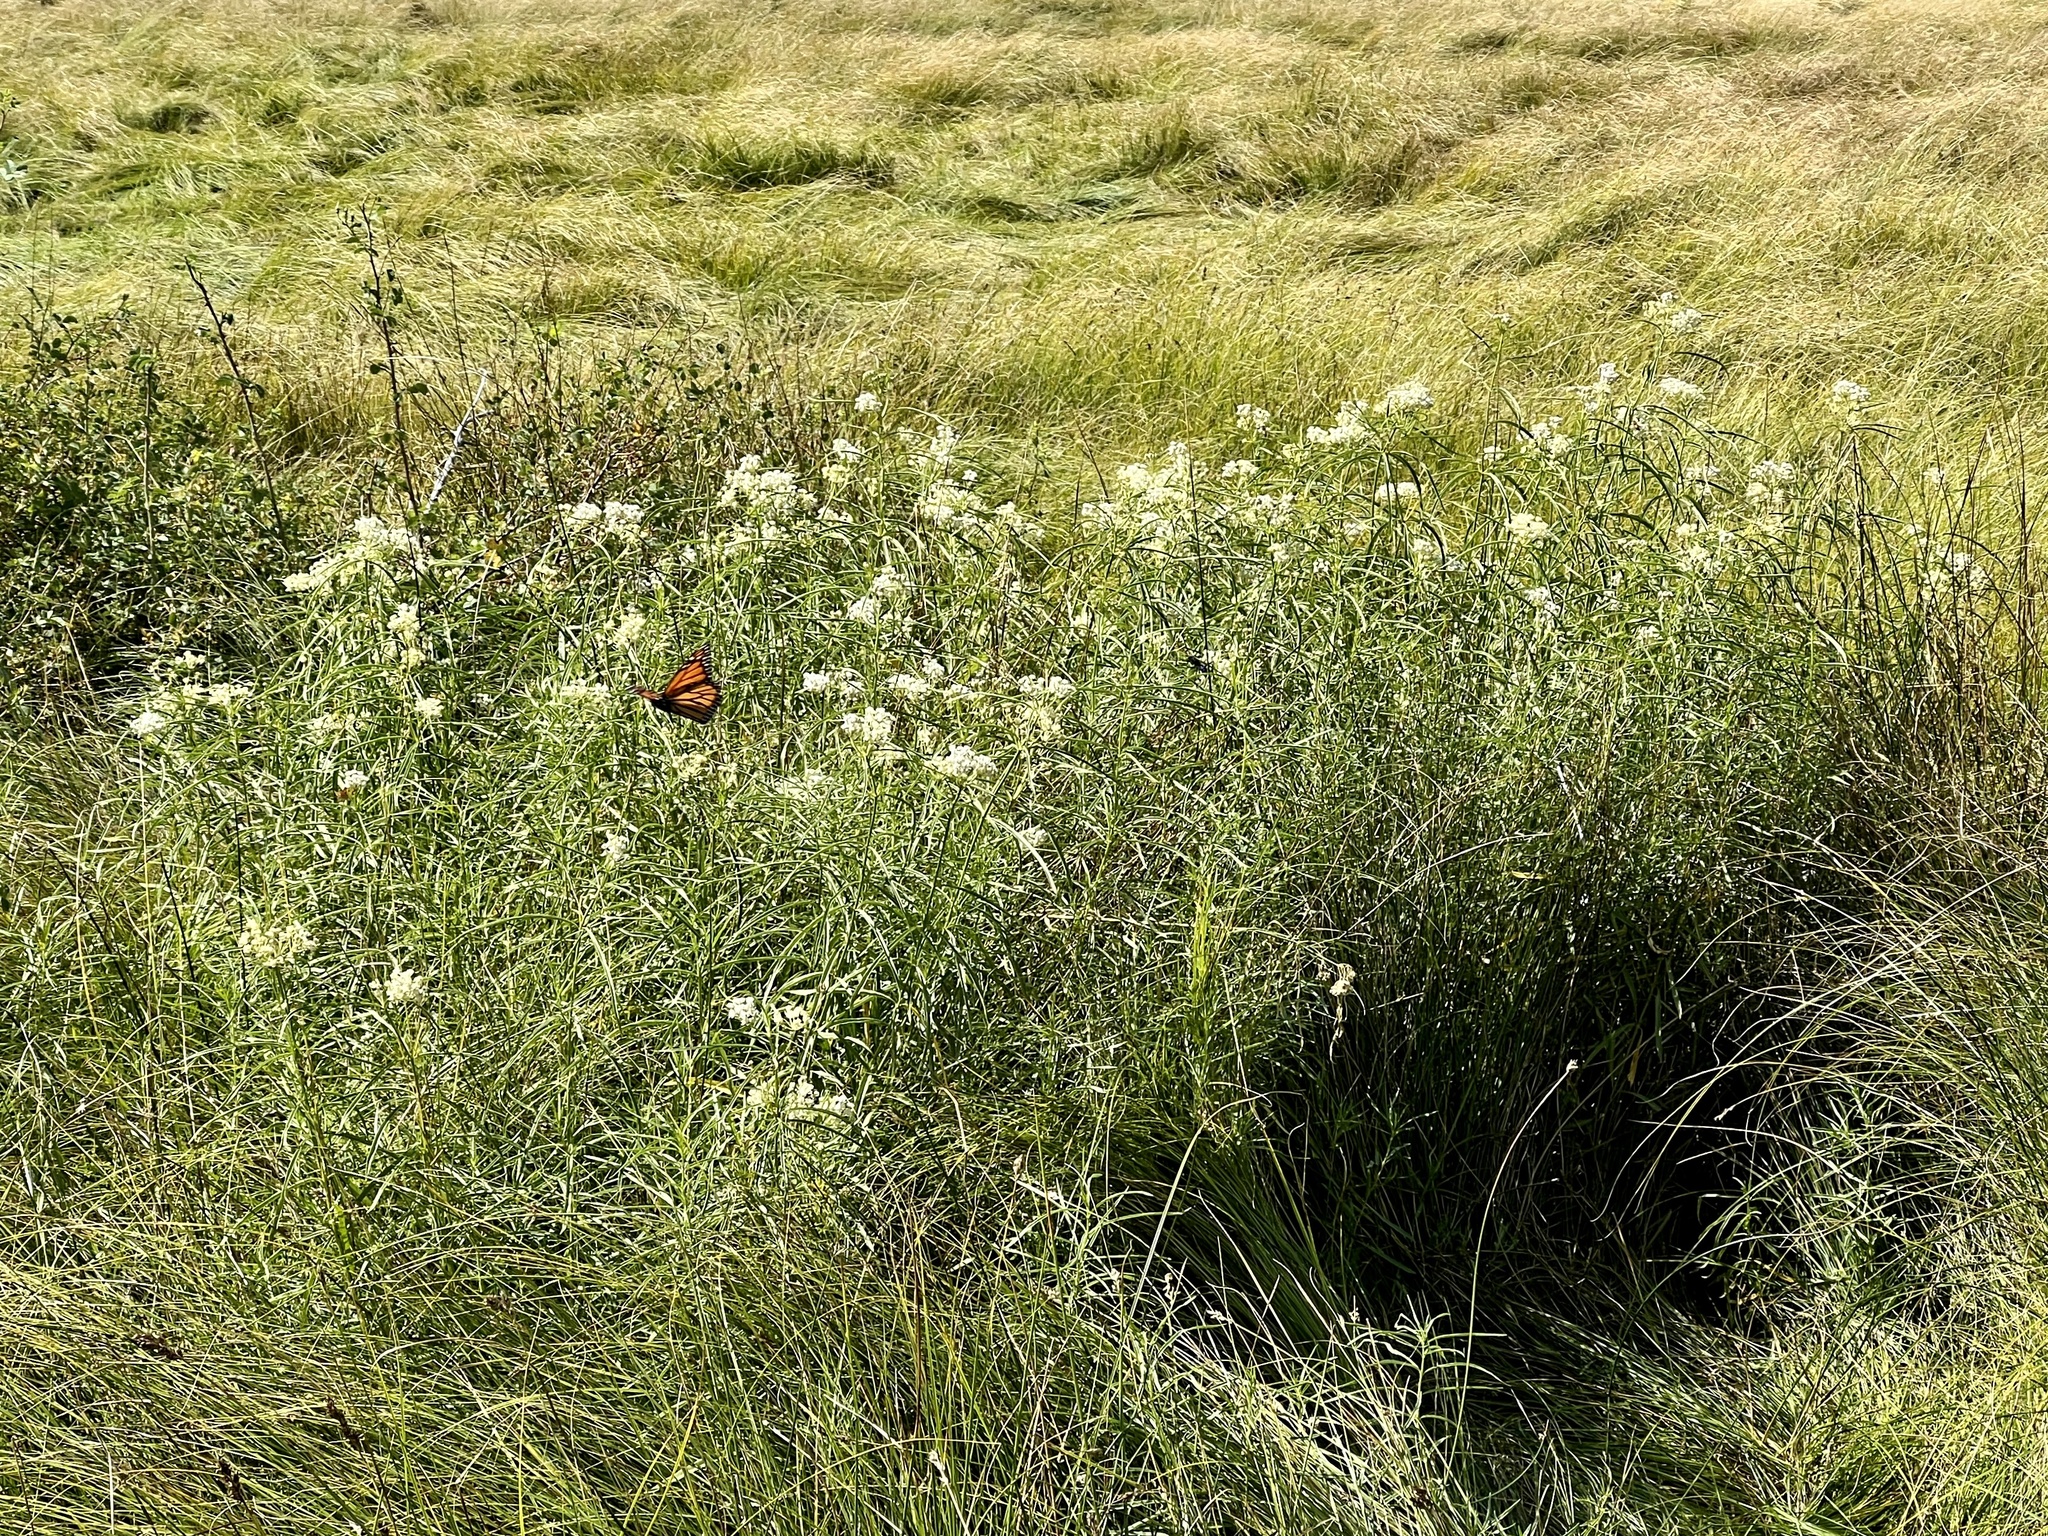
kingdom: Animalia
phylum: Arthropoda
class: Insecta
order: Lepidoptera
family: Nymphalidae
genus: Danaus
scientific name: Danaus plexippus
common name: Monarch
